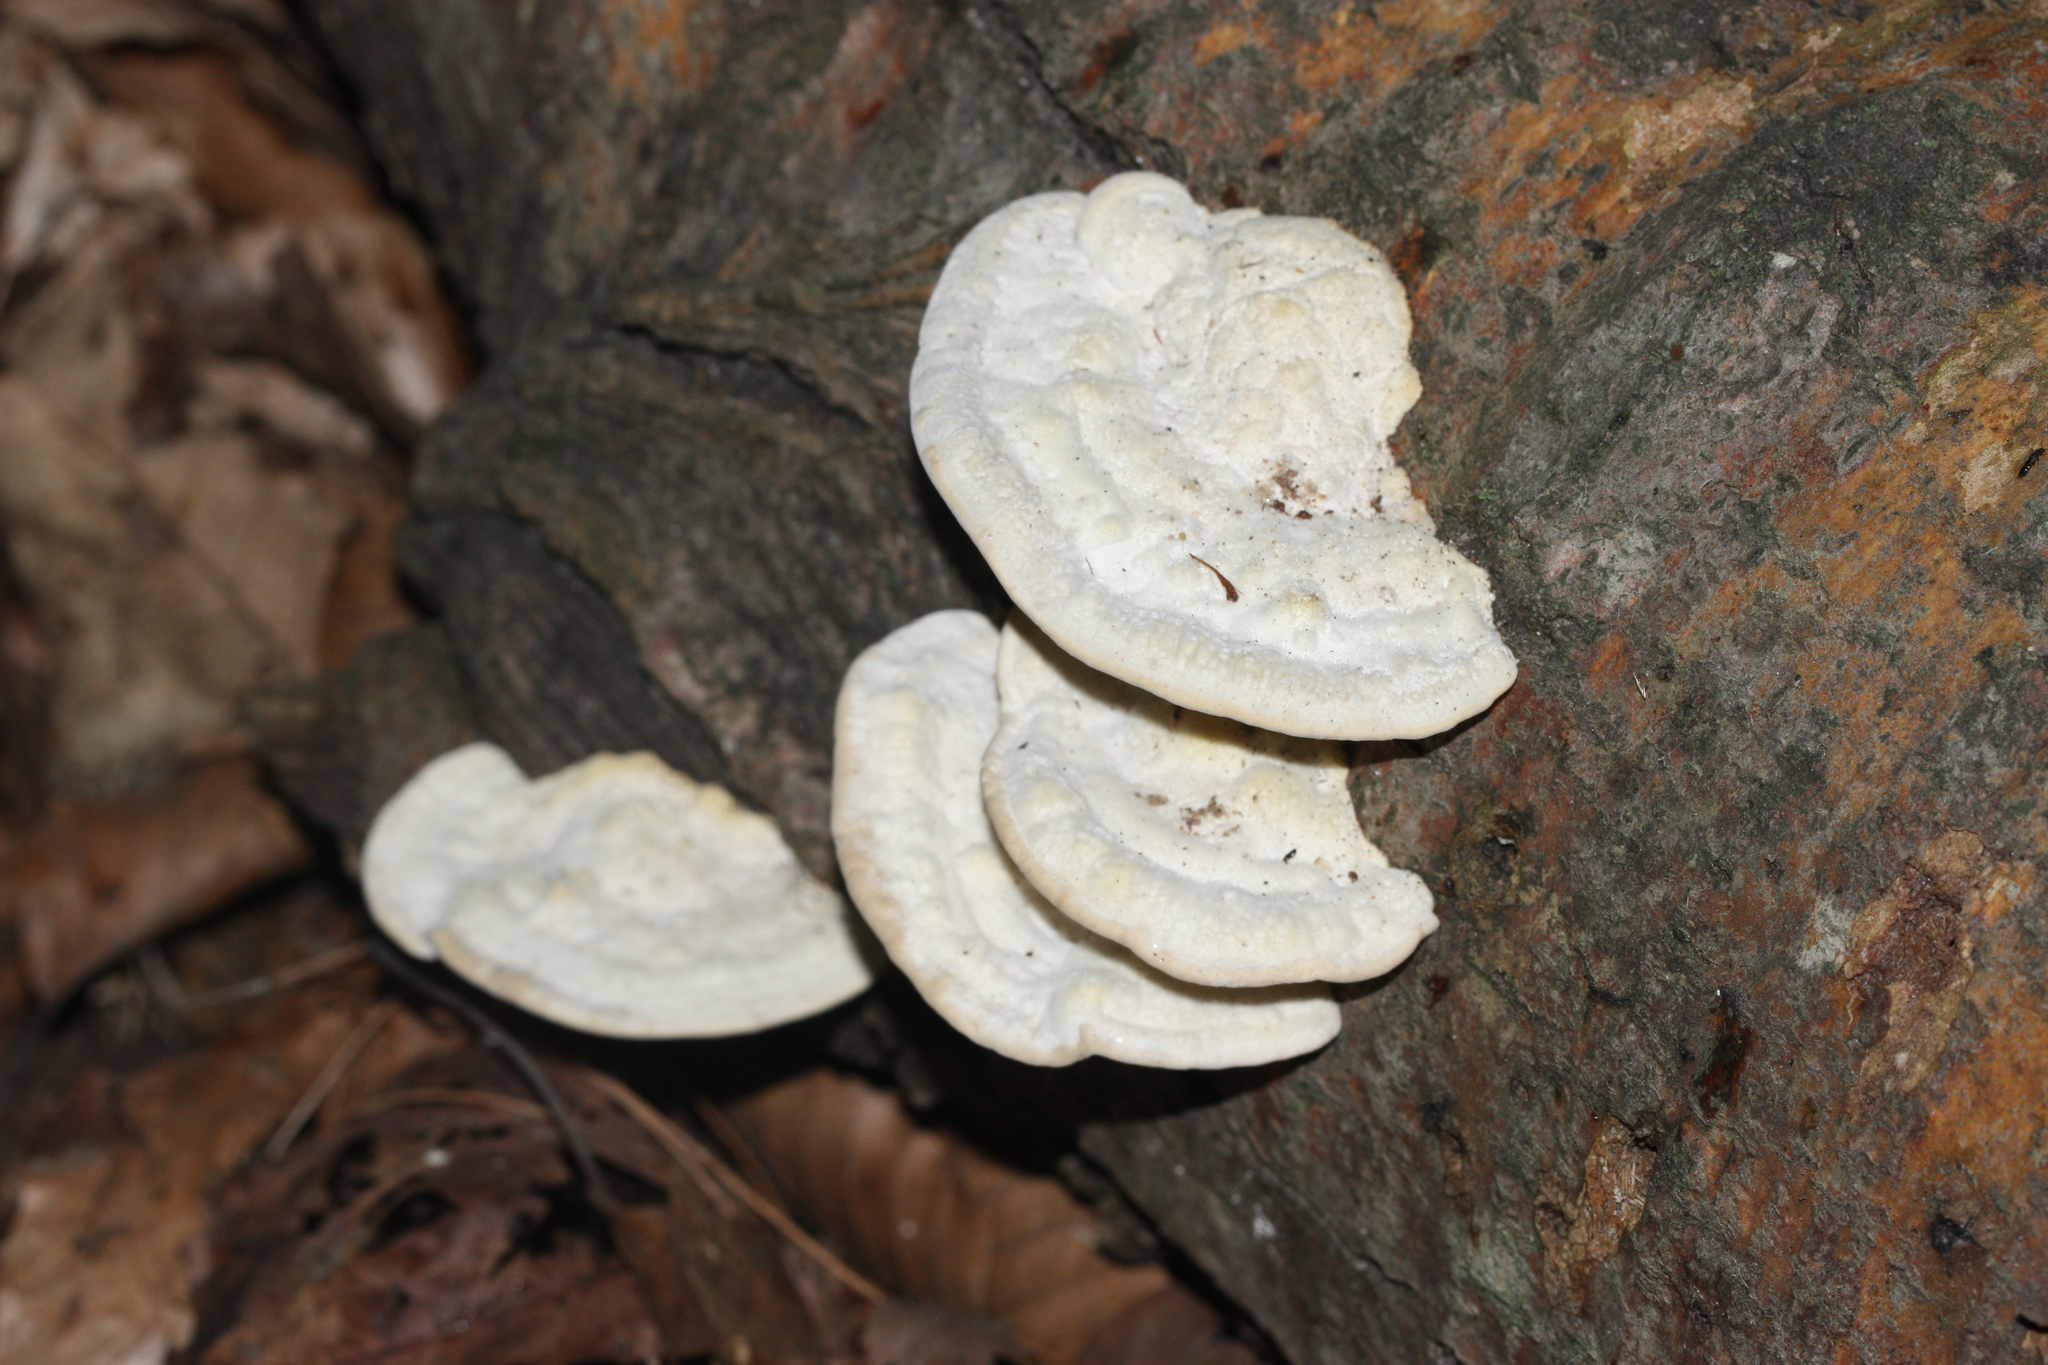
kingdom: Fungi
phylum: Basidiomycota
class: Agaricomycetes
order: Polyporales
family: Polyporaceae
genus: Trametes
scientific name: Trametes gibbosa
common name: Lumpy bracket
